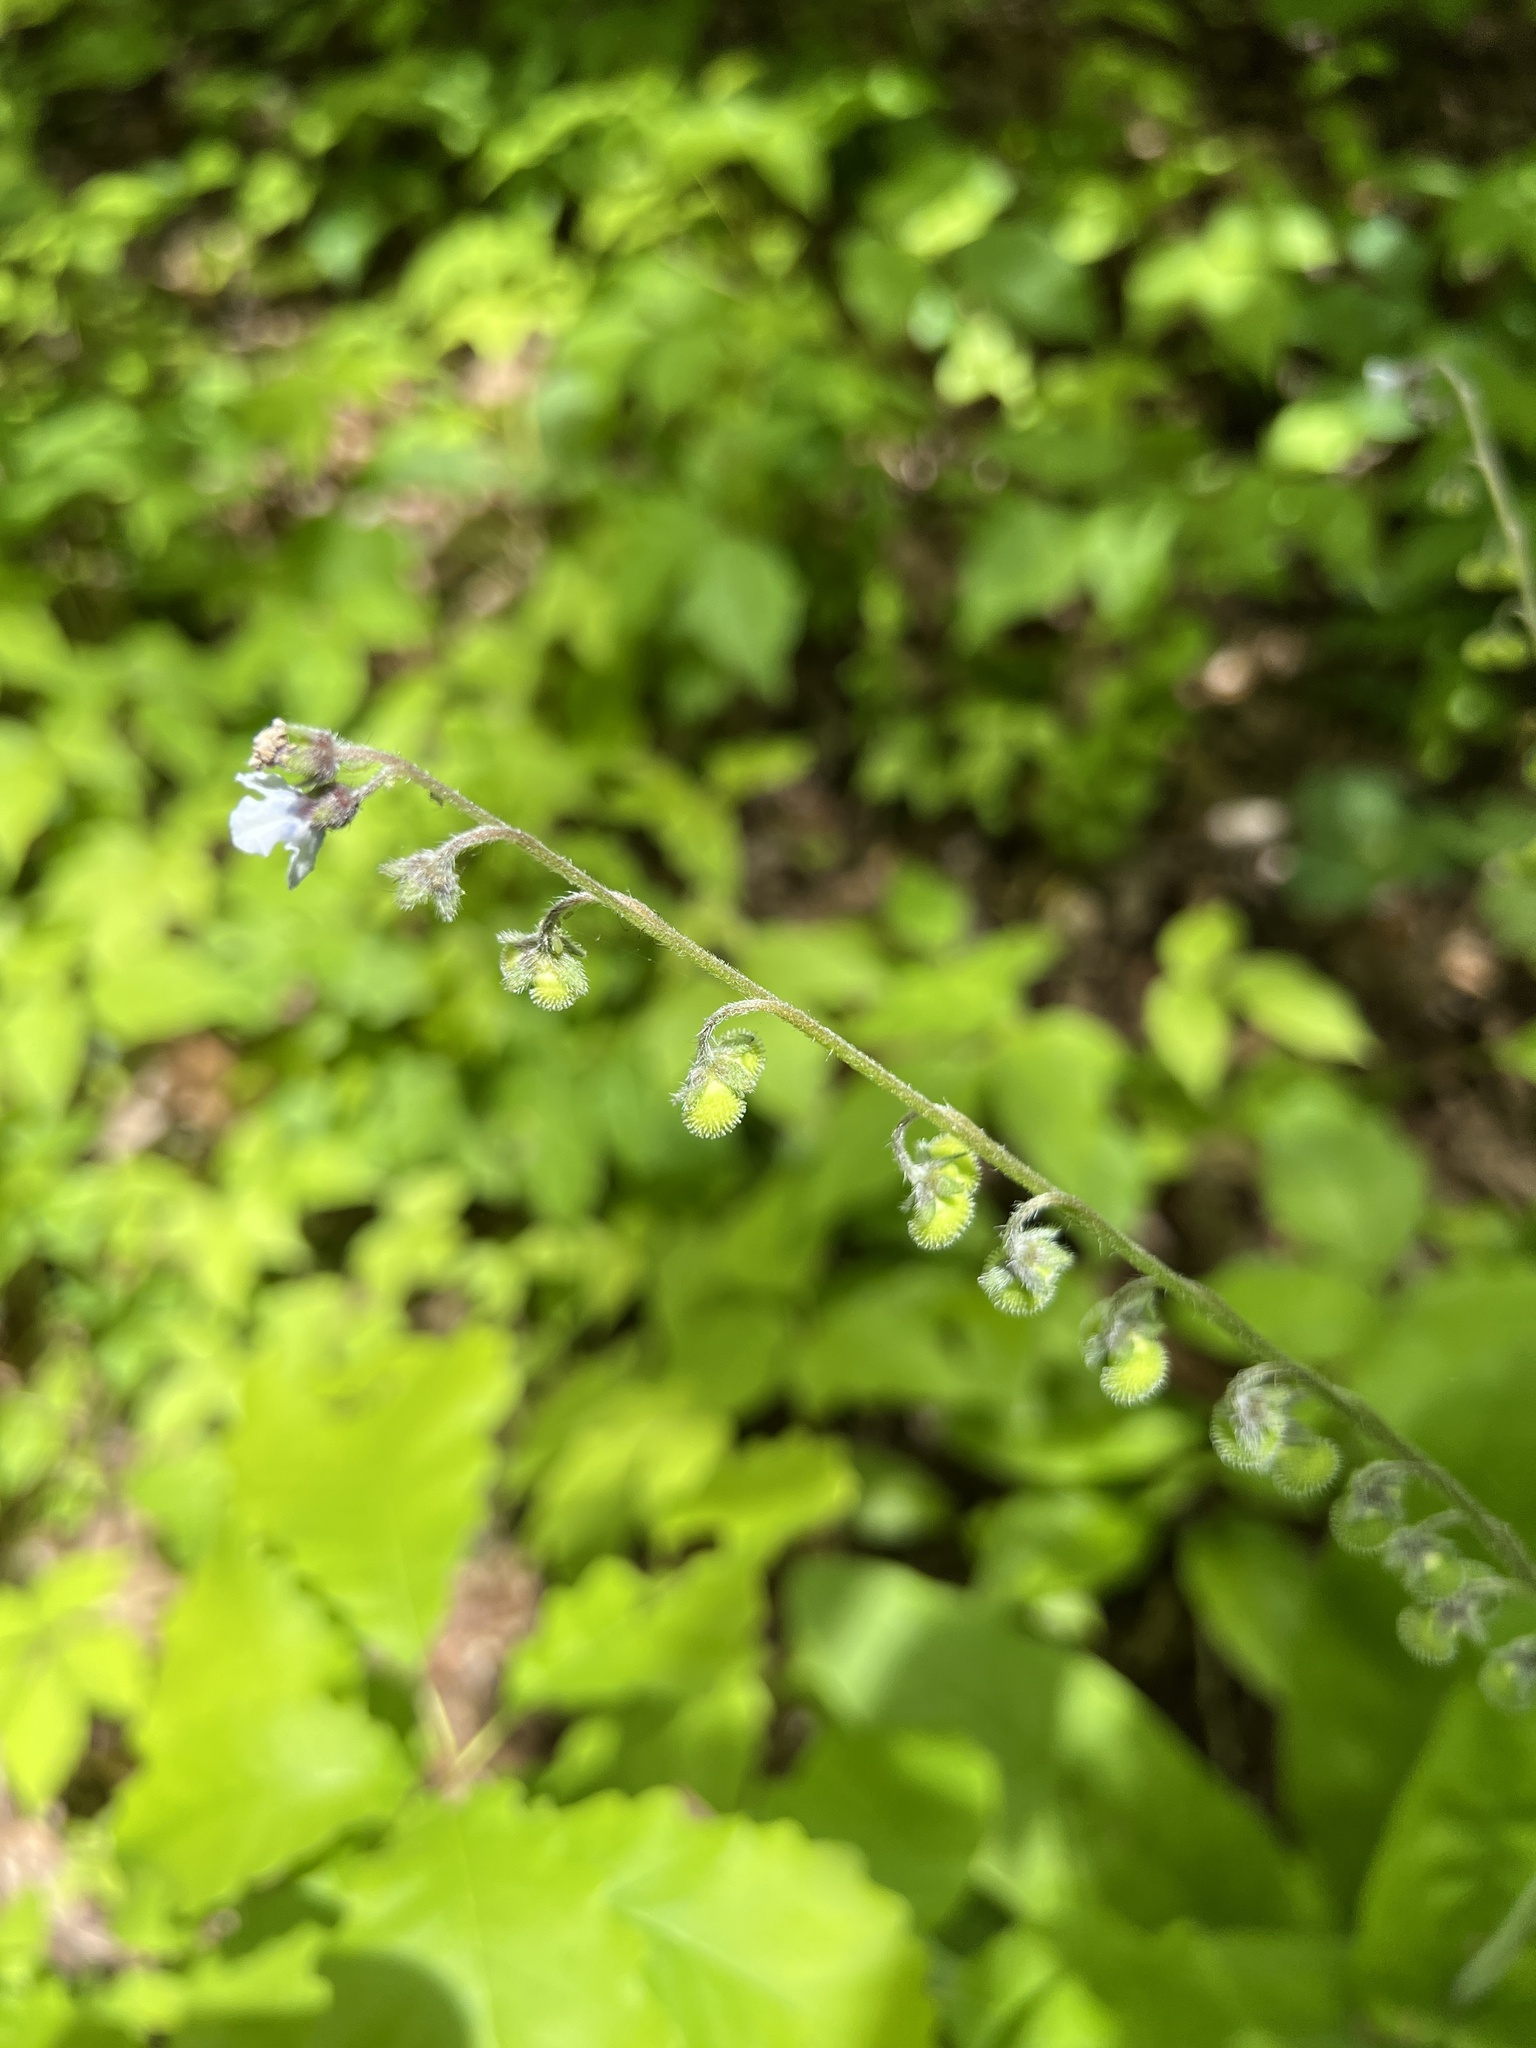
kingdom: Plantae
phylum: Tracheophyta
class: Magnoliopsida
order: Boraginales
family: Boraginaceae
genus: Andersonglossum
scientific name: Andersonglossum virginianum
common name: Wild comfrey
